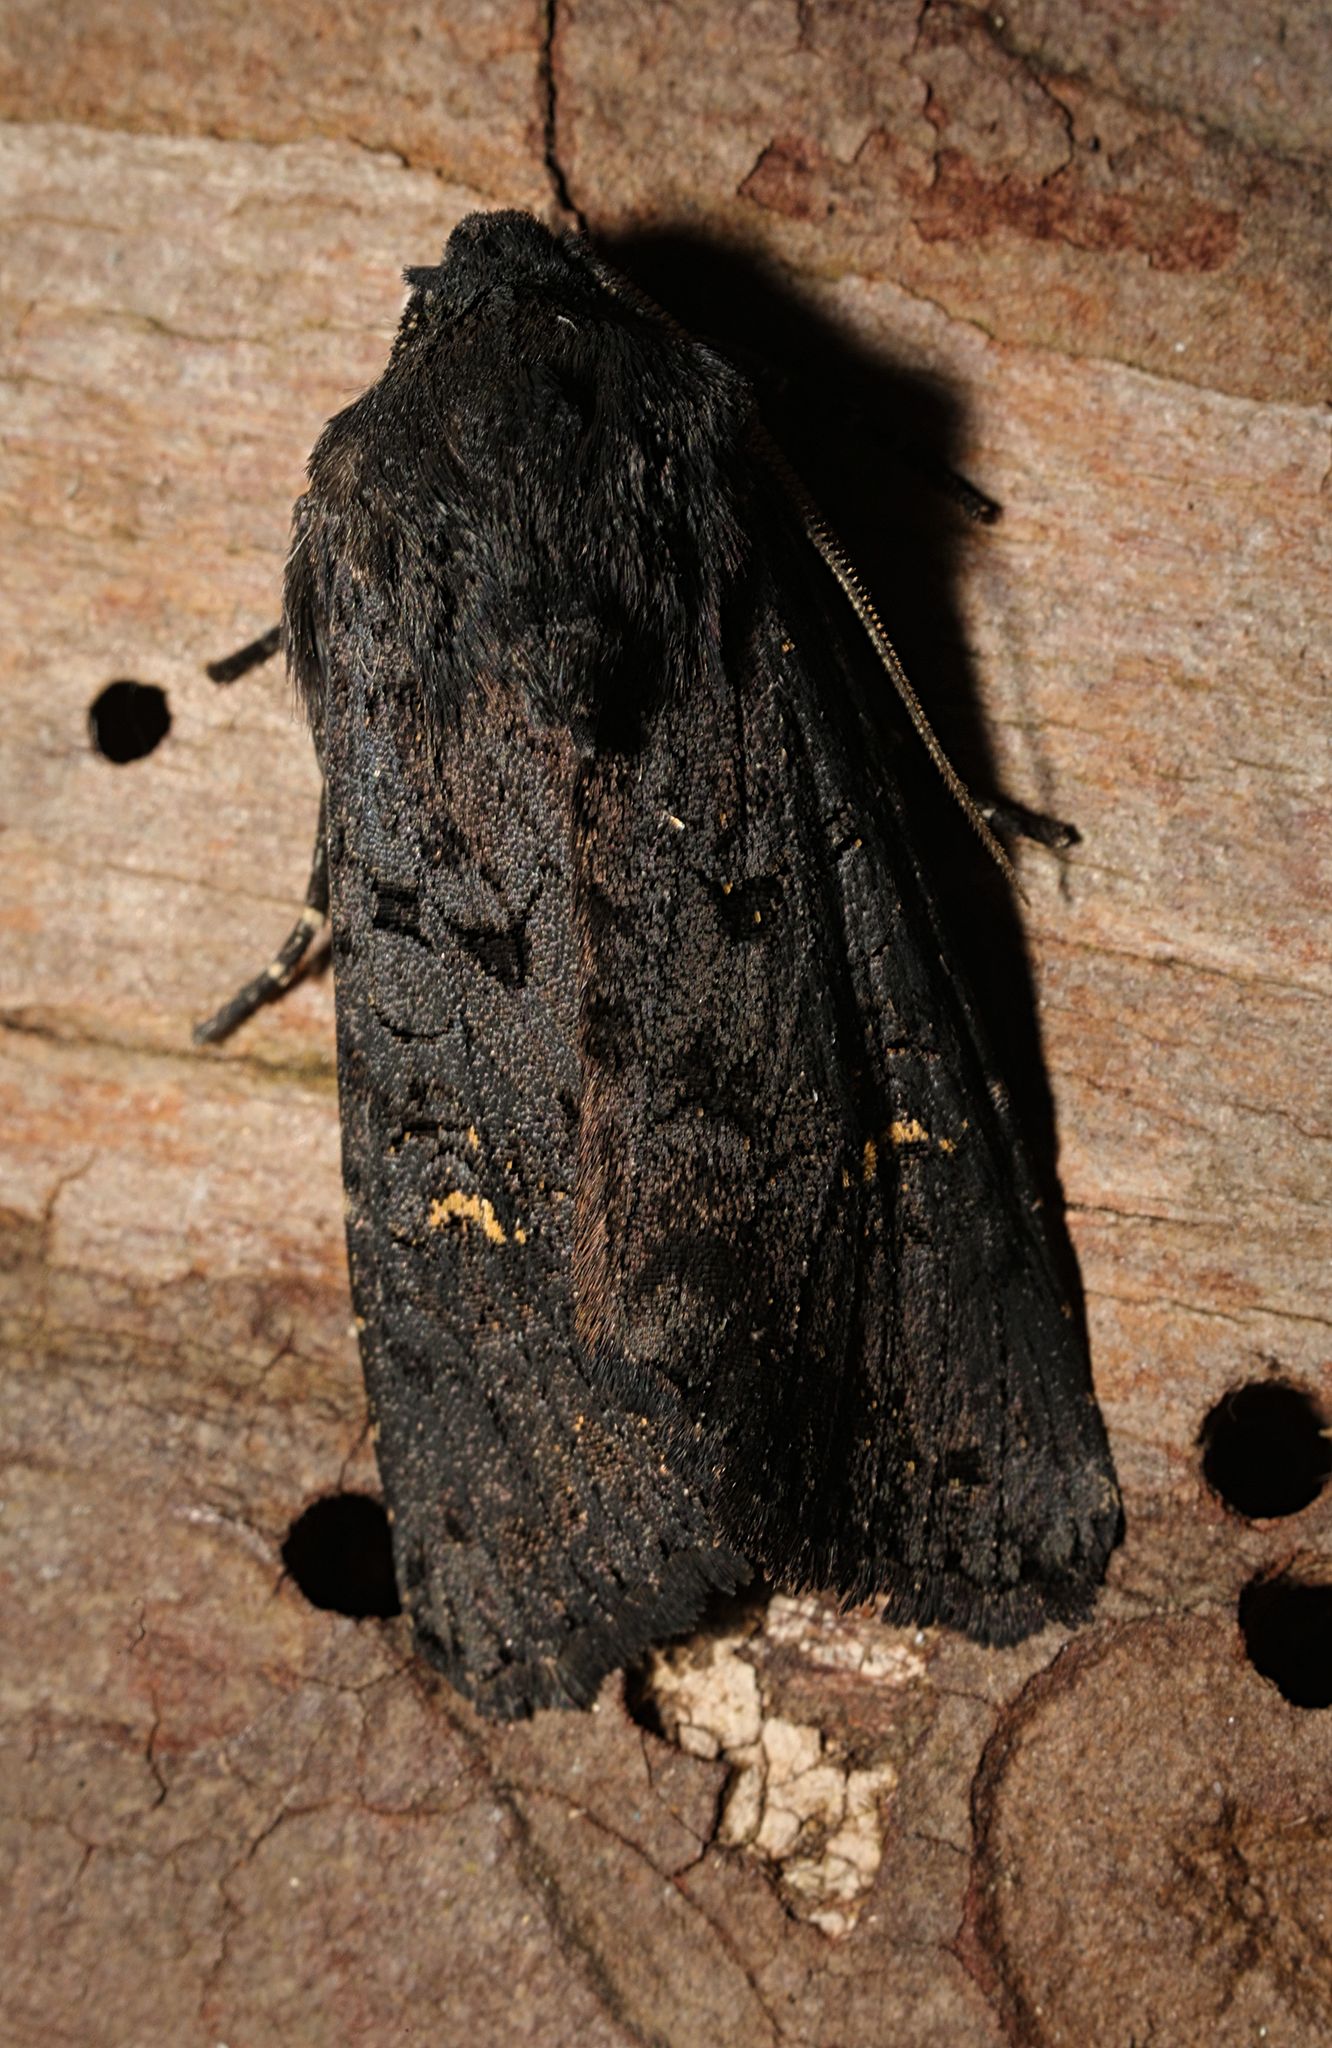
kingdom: Animalia
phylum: Arthropoda
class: Insecta
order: Lepidoptera
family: Noctuidae
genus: Aporophyla
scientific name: Aporophyla nigra
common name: Black rustic
